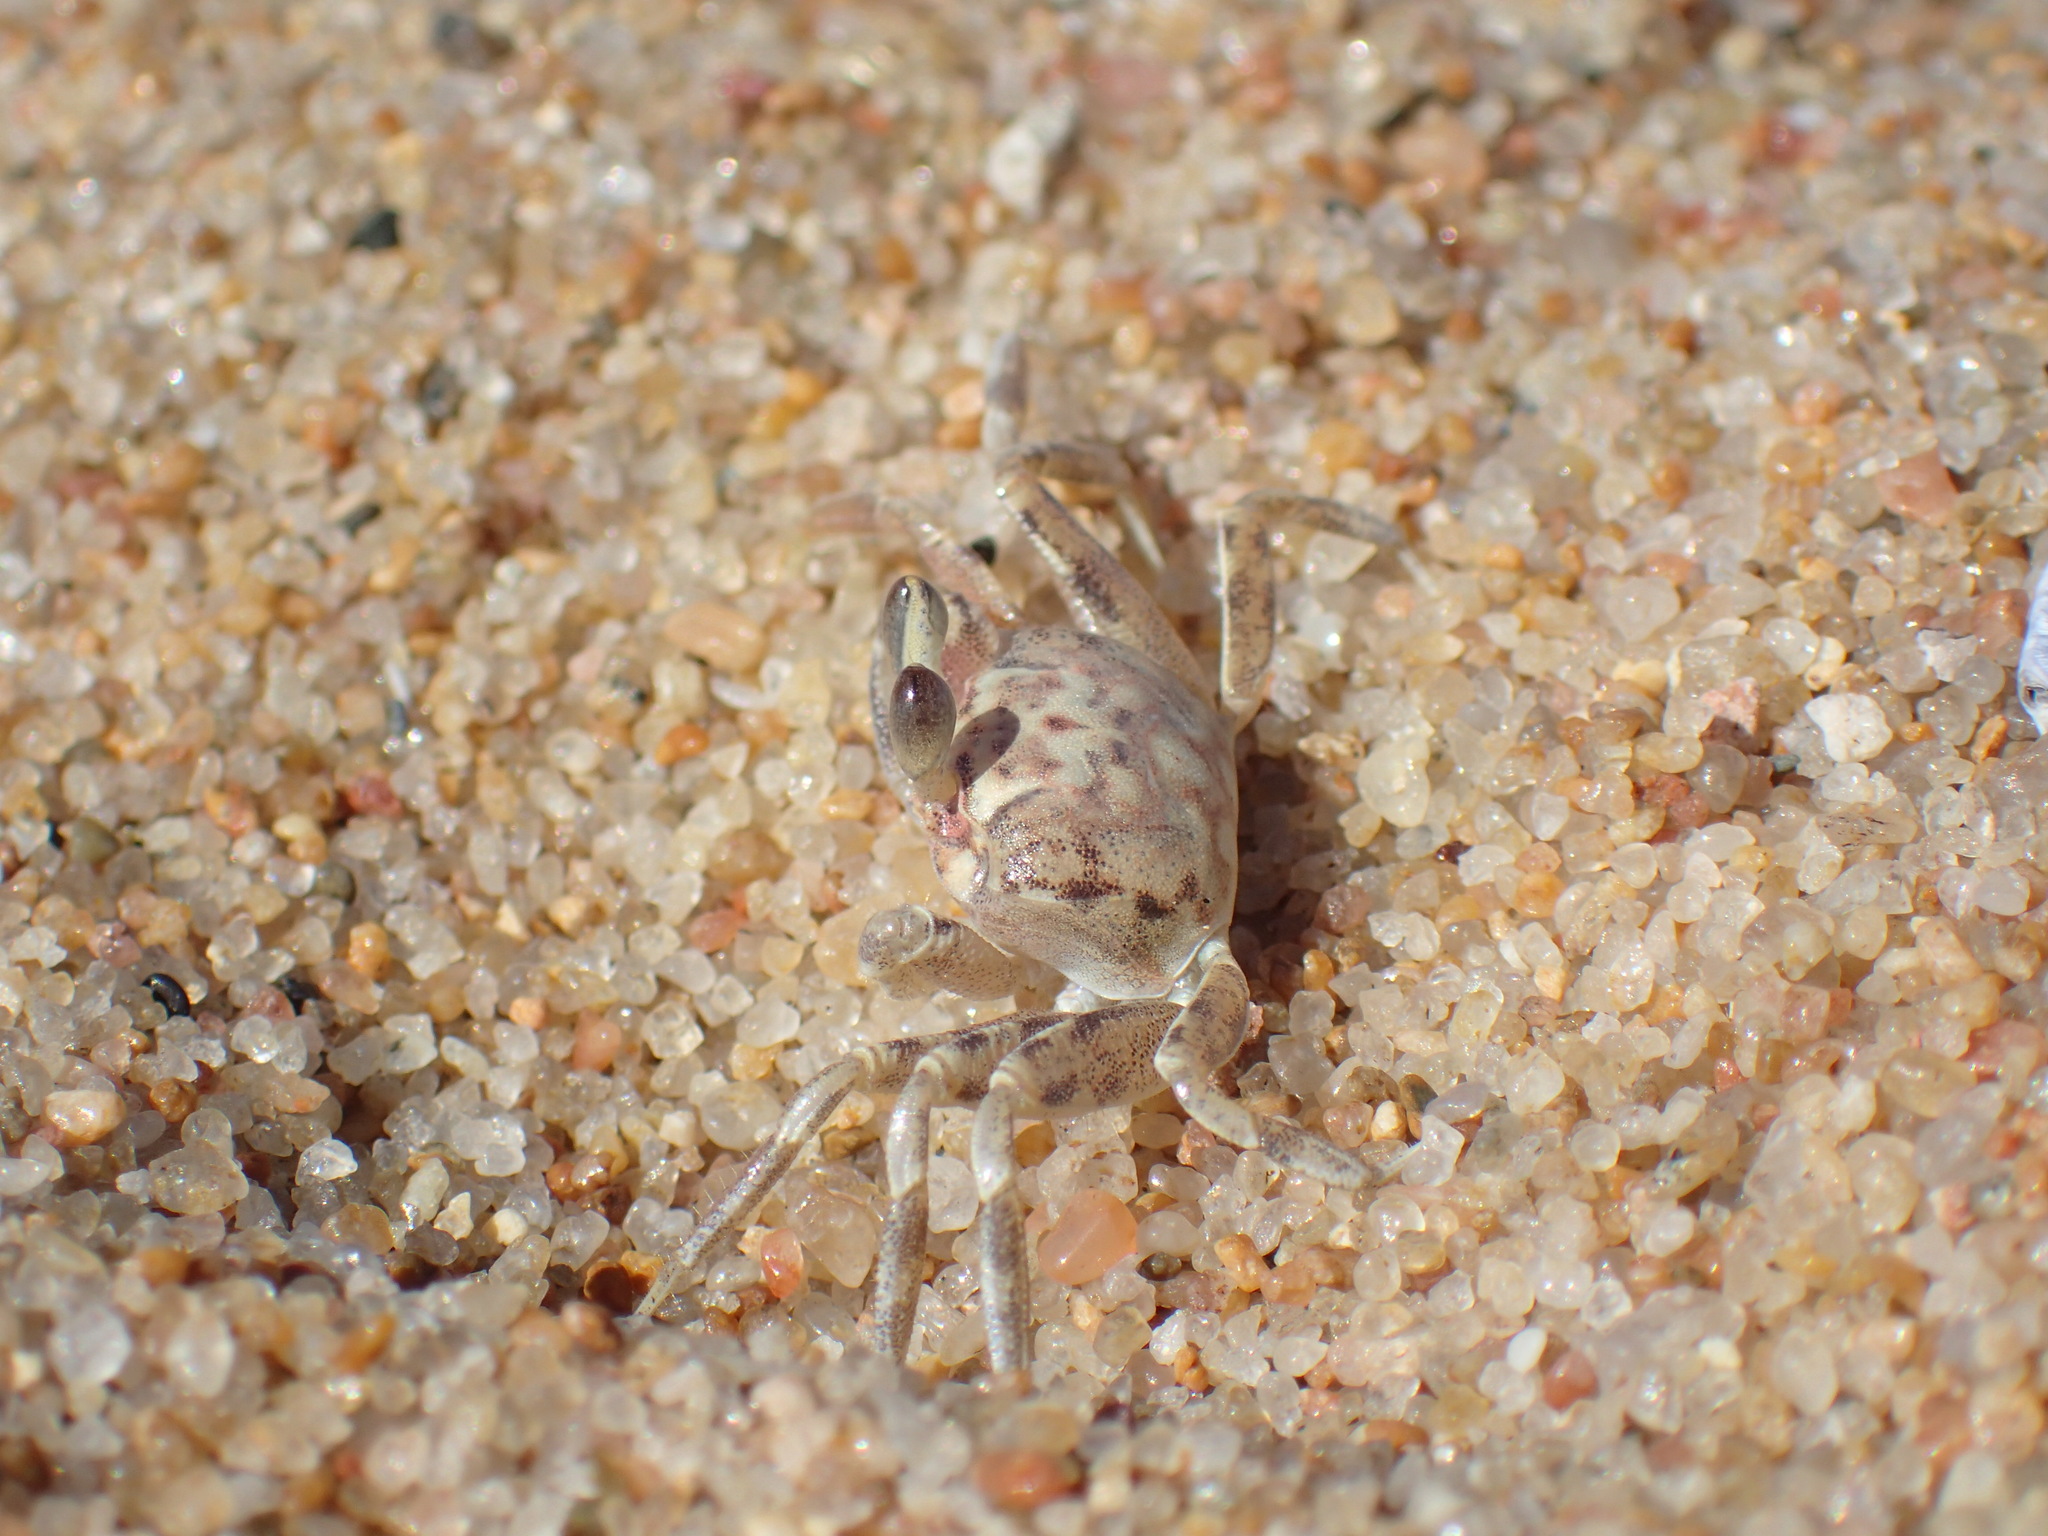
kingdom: Animalia
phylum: Arthropoda
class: Malacostraca
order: Decapoda
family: Ocypodidae
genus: Ocypode
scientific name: Ocypode
